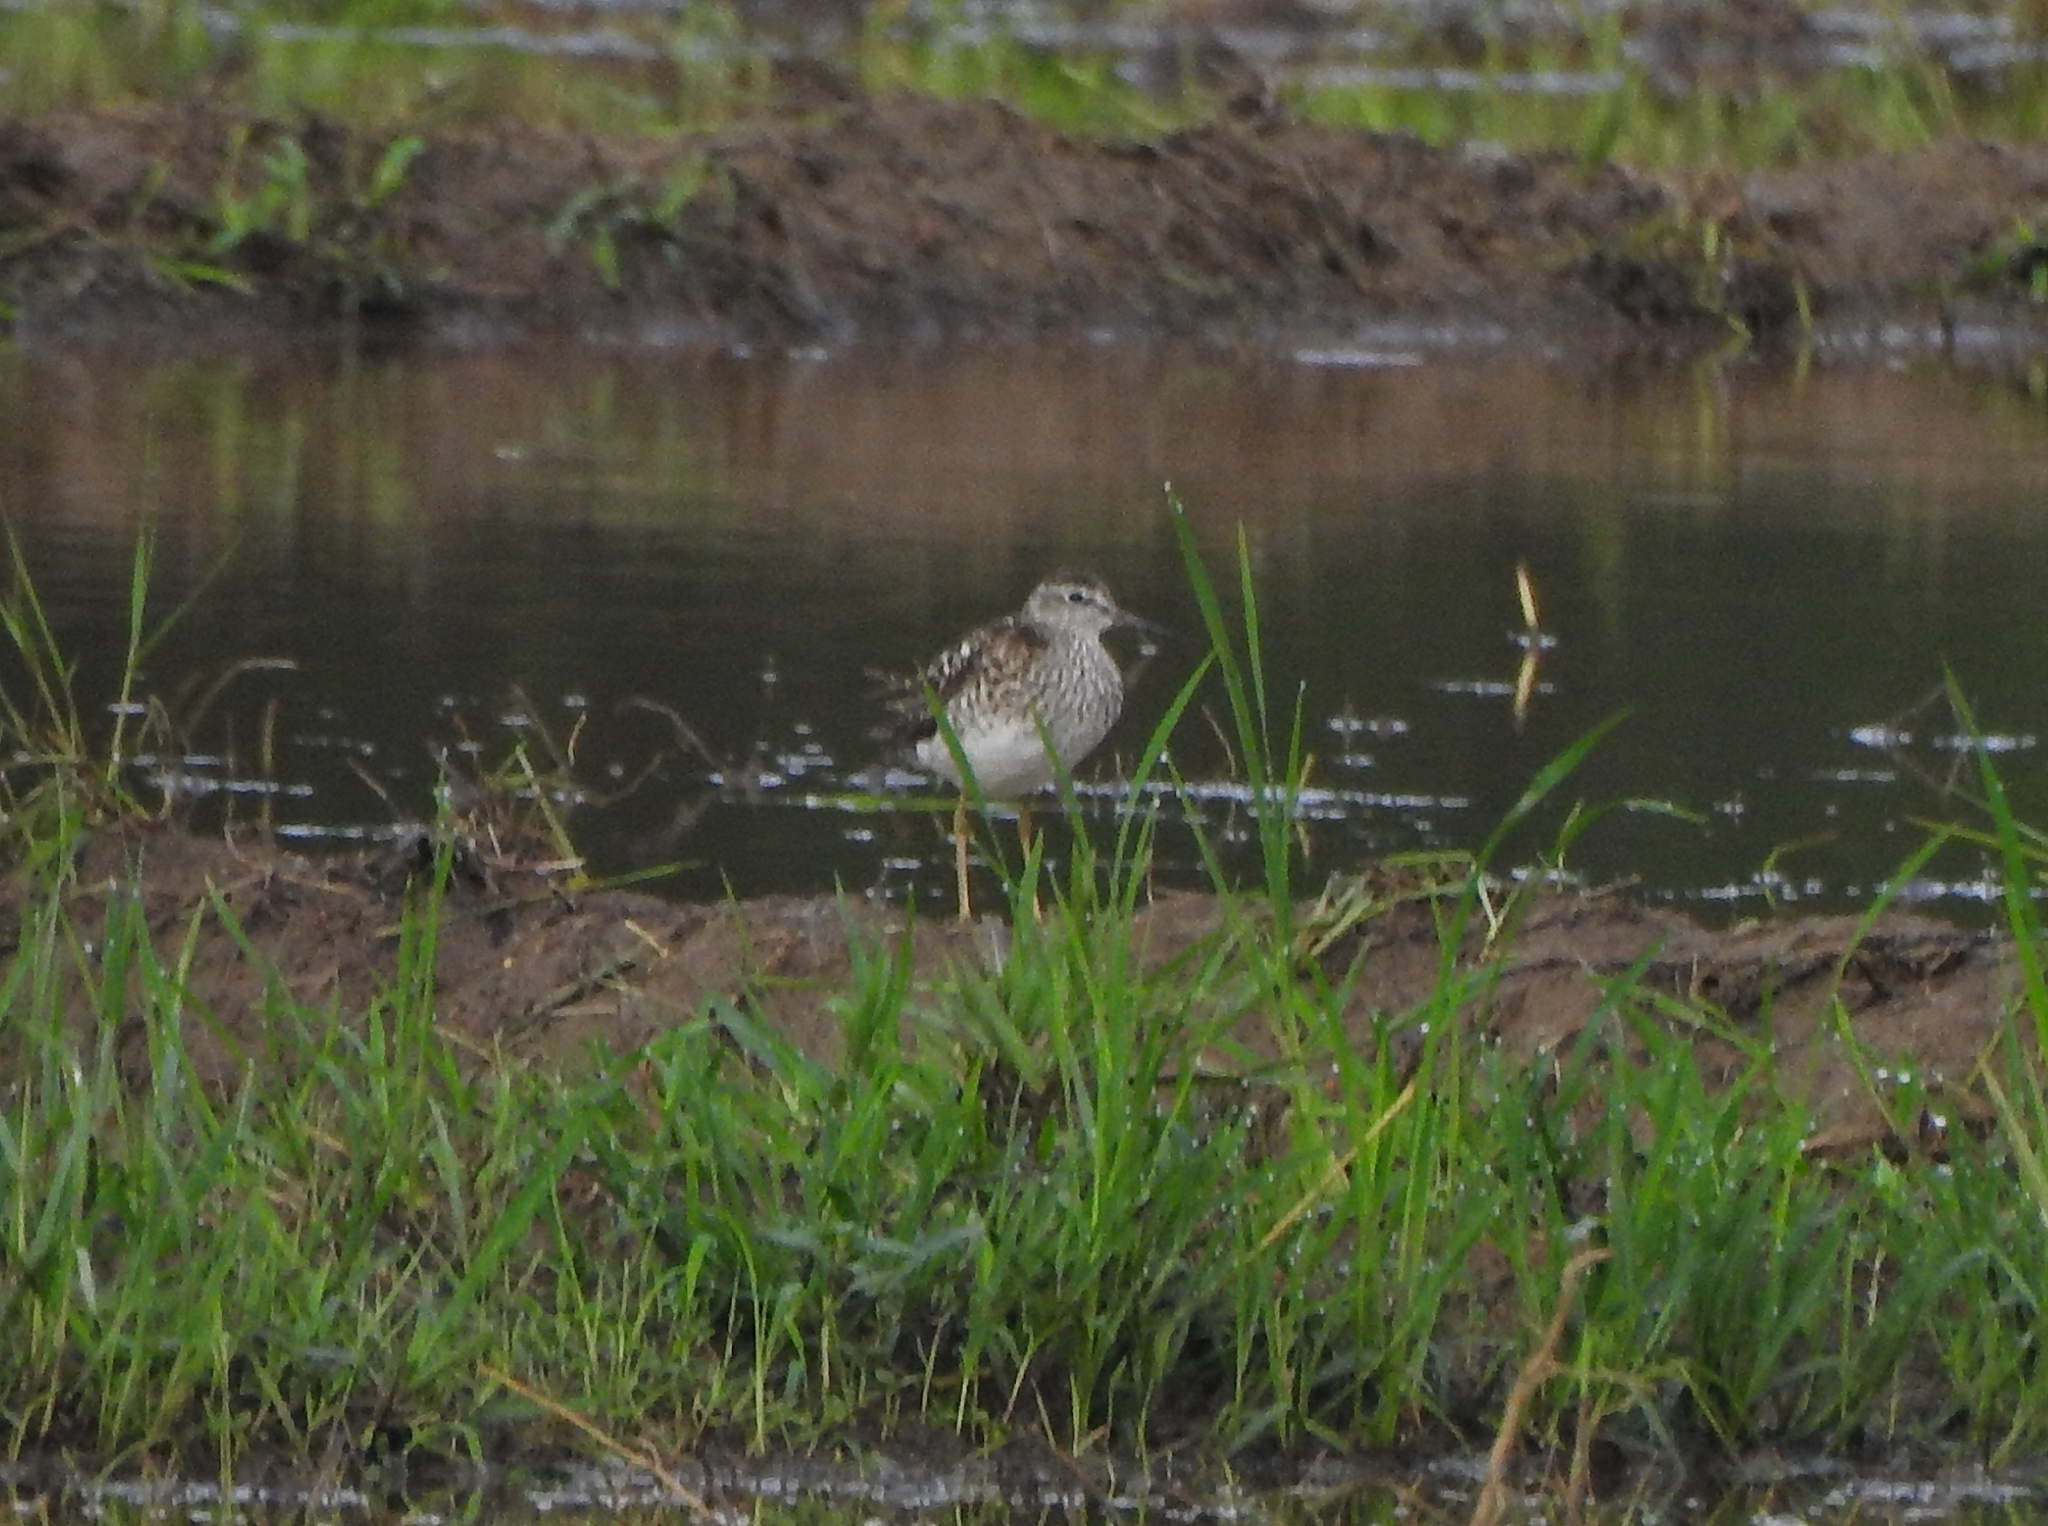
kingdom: Animalia
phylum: Chordata
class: Aves
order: Charadriiformes
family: Scolopacidae
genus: Tringa
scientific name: Tringa glareola
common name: Wood sandpiper
